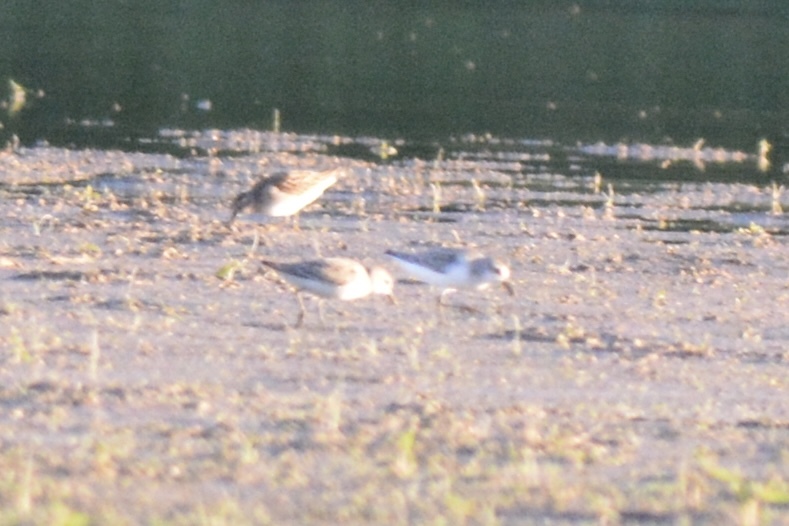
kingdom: Animalia
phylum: Chordata
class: Aves
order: Charadriiformes
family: Scolopacidae
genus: Calidris
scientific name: Calidris alba
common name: Sanderling
